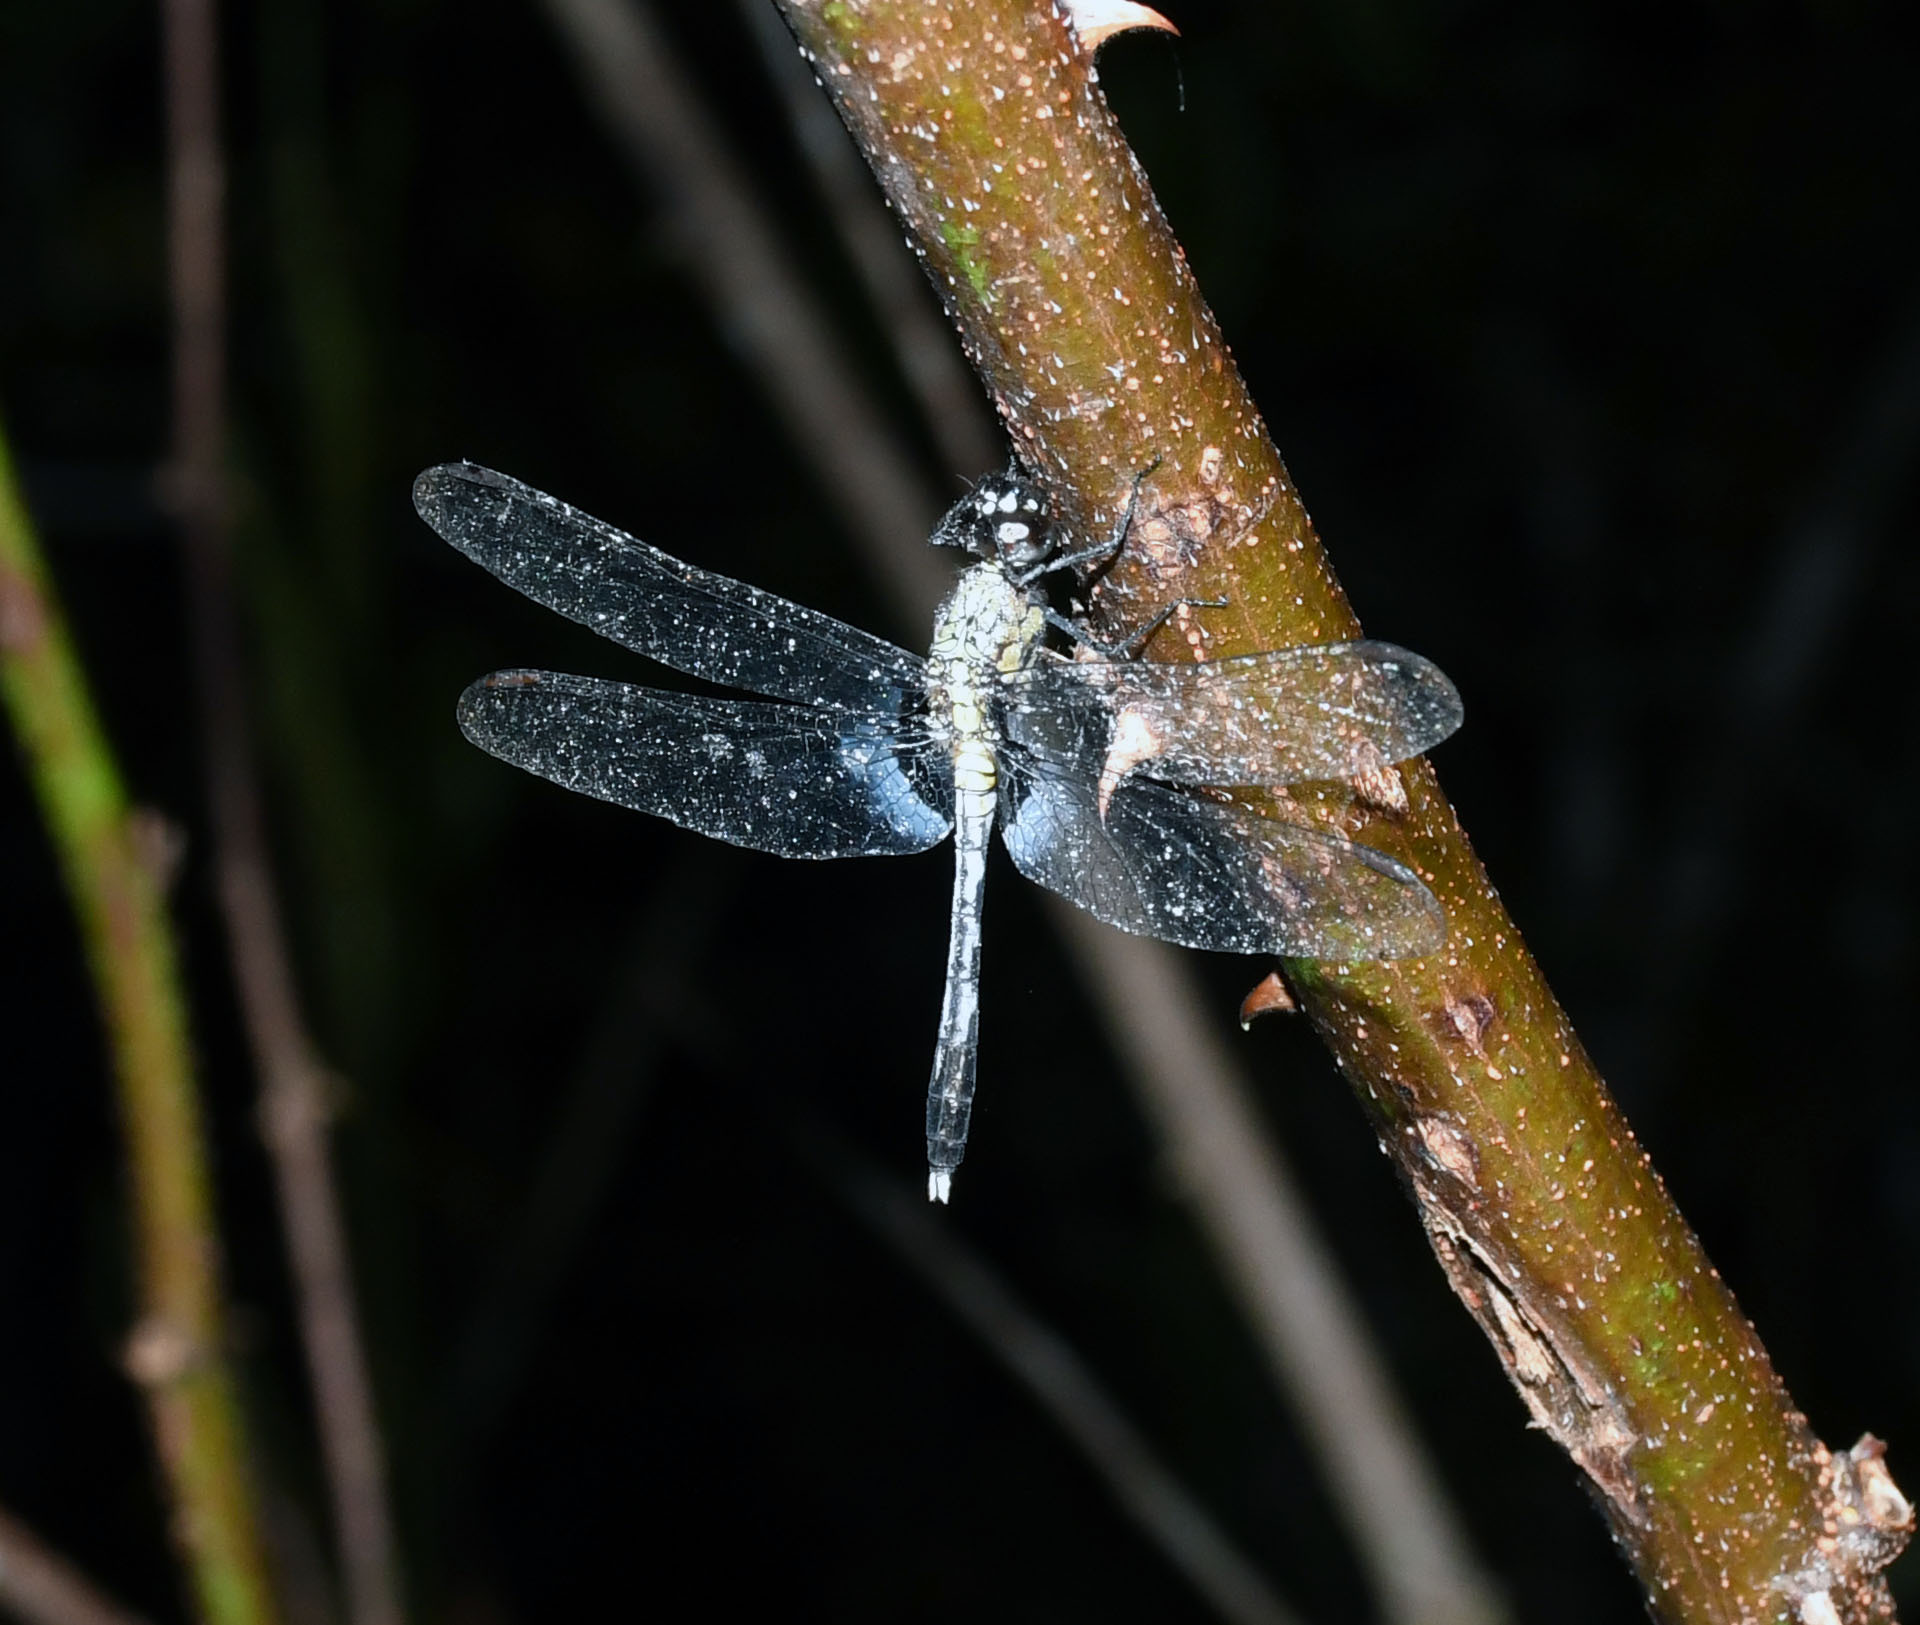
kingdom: Animalia
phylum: Arthropoda
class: Insecta
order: Odonata
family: Libellulidae
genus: Erythrodiplax
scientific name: Erythrodiplax basalis
